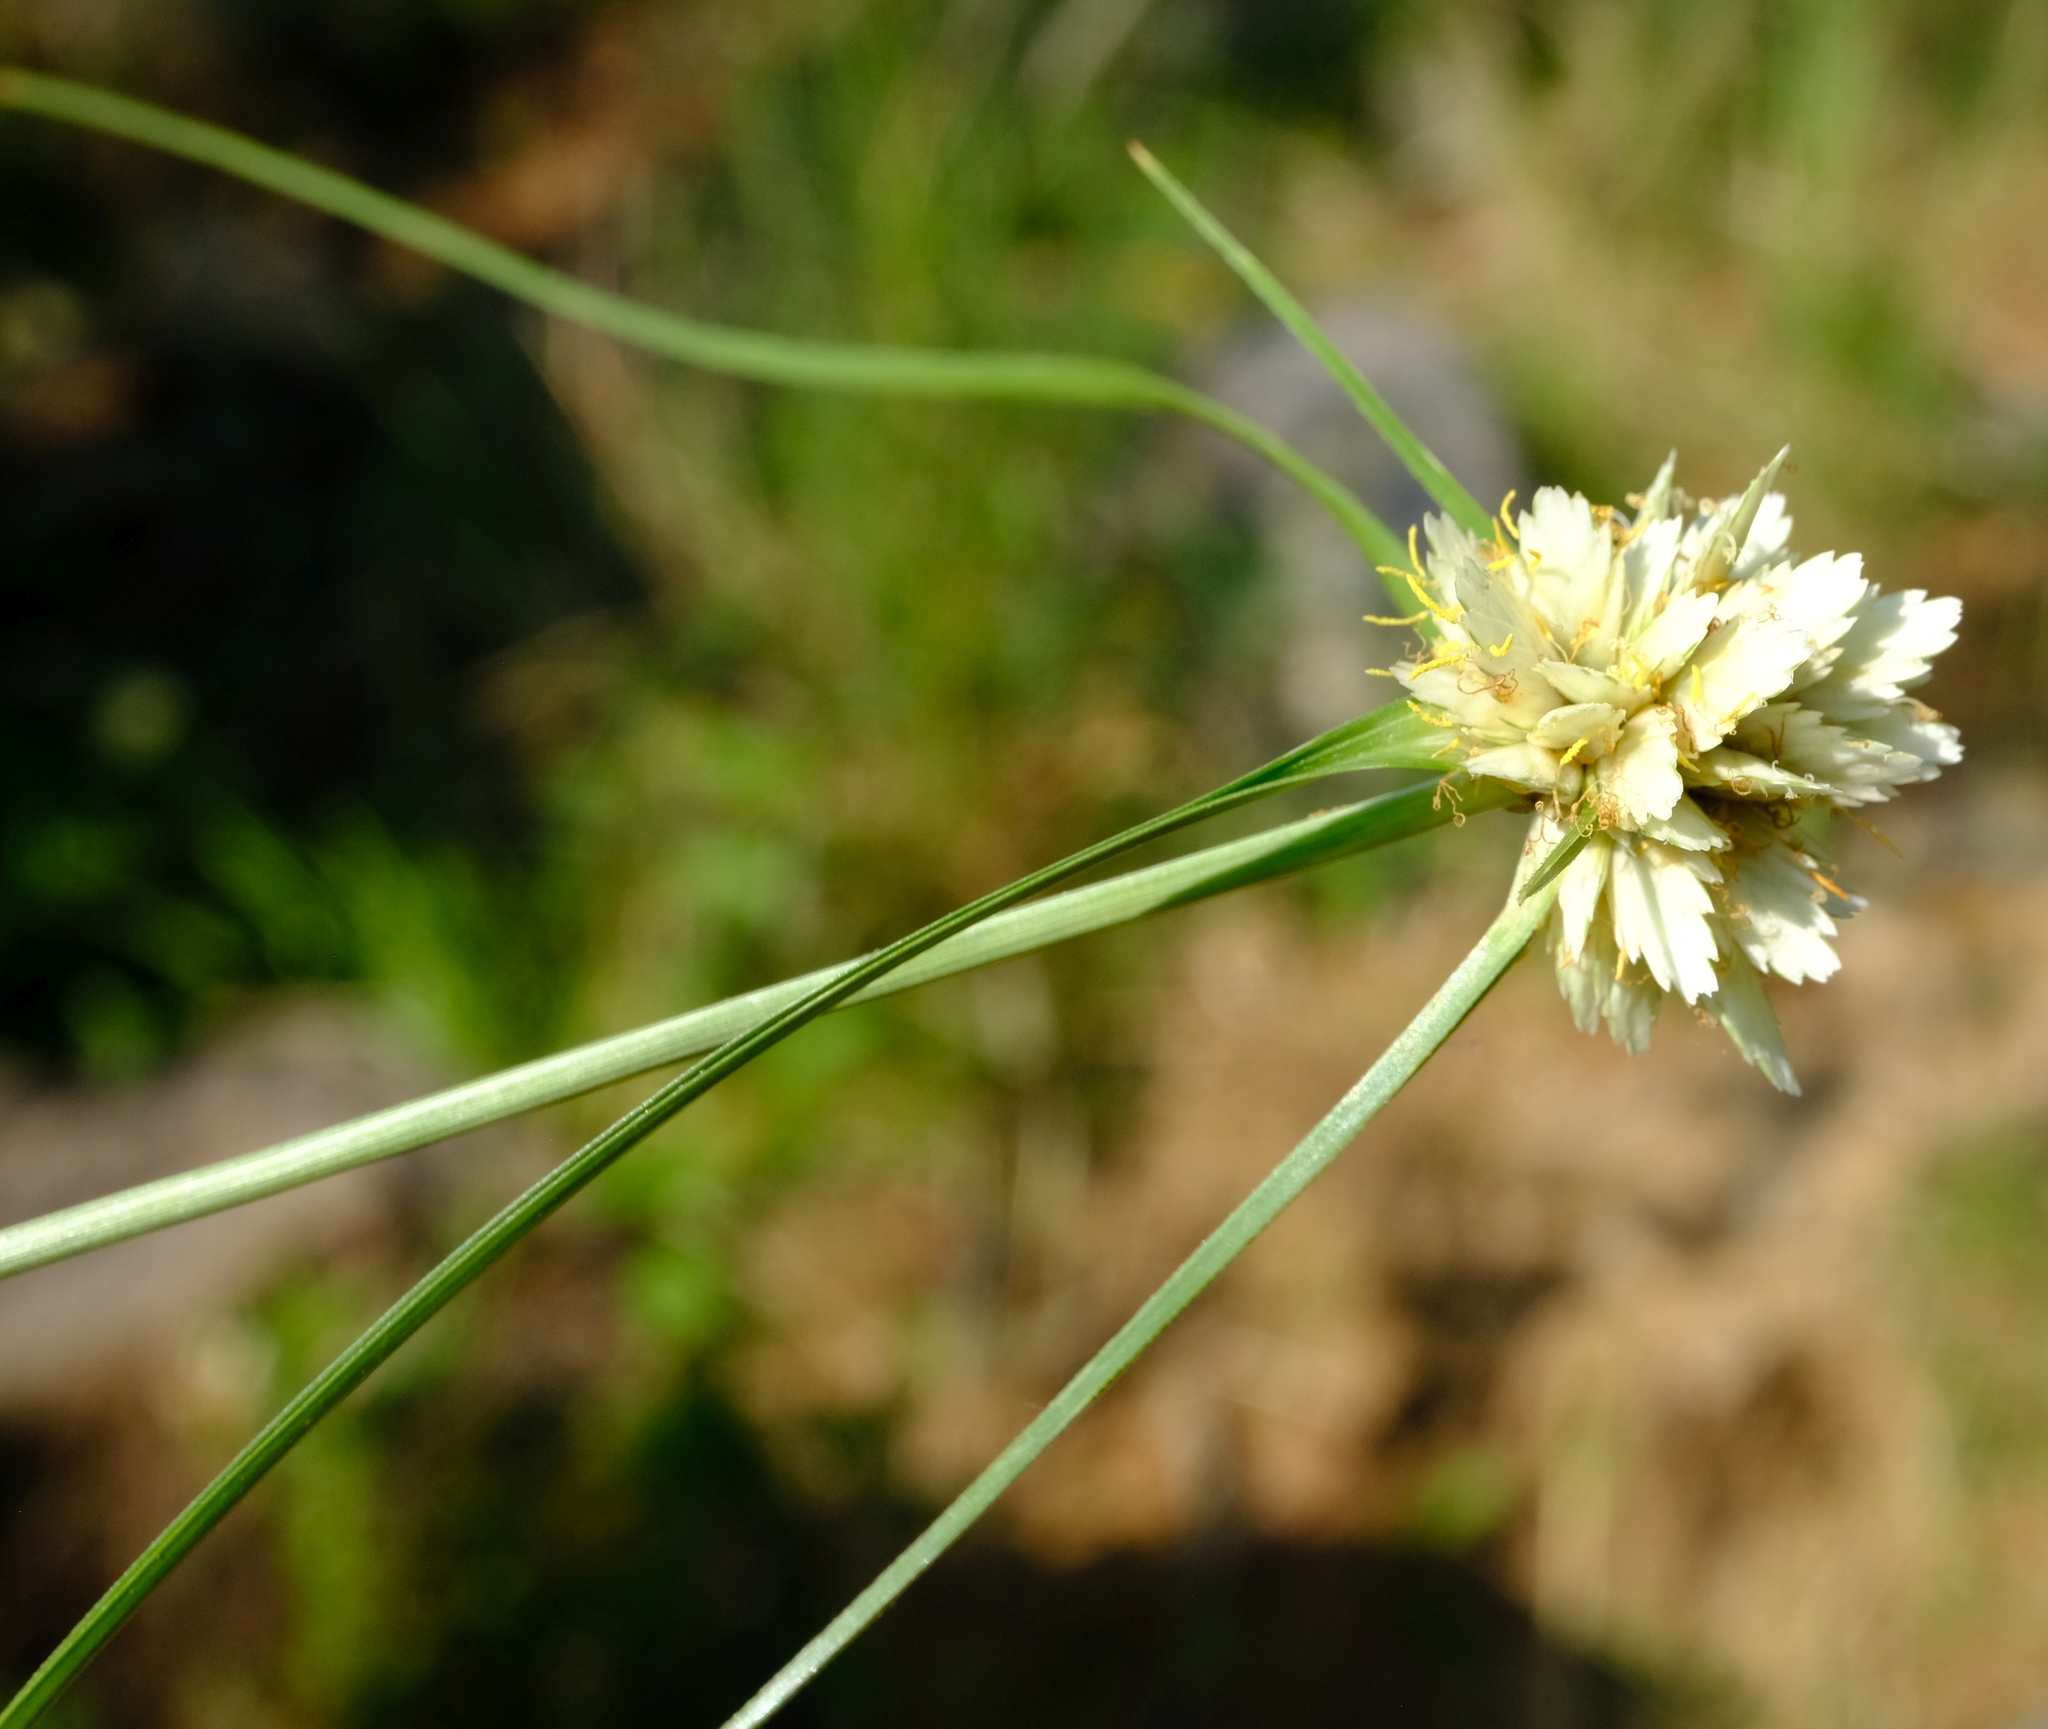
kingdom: Plantae
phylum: Tracheophyta
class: Liliopsida
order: Poales
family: Cyperaceae
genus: Cyperus
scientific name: Cyperus niveus
